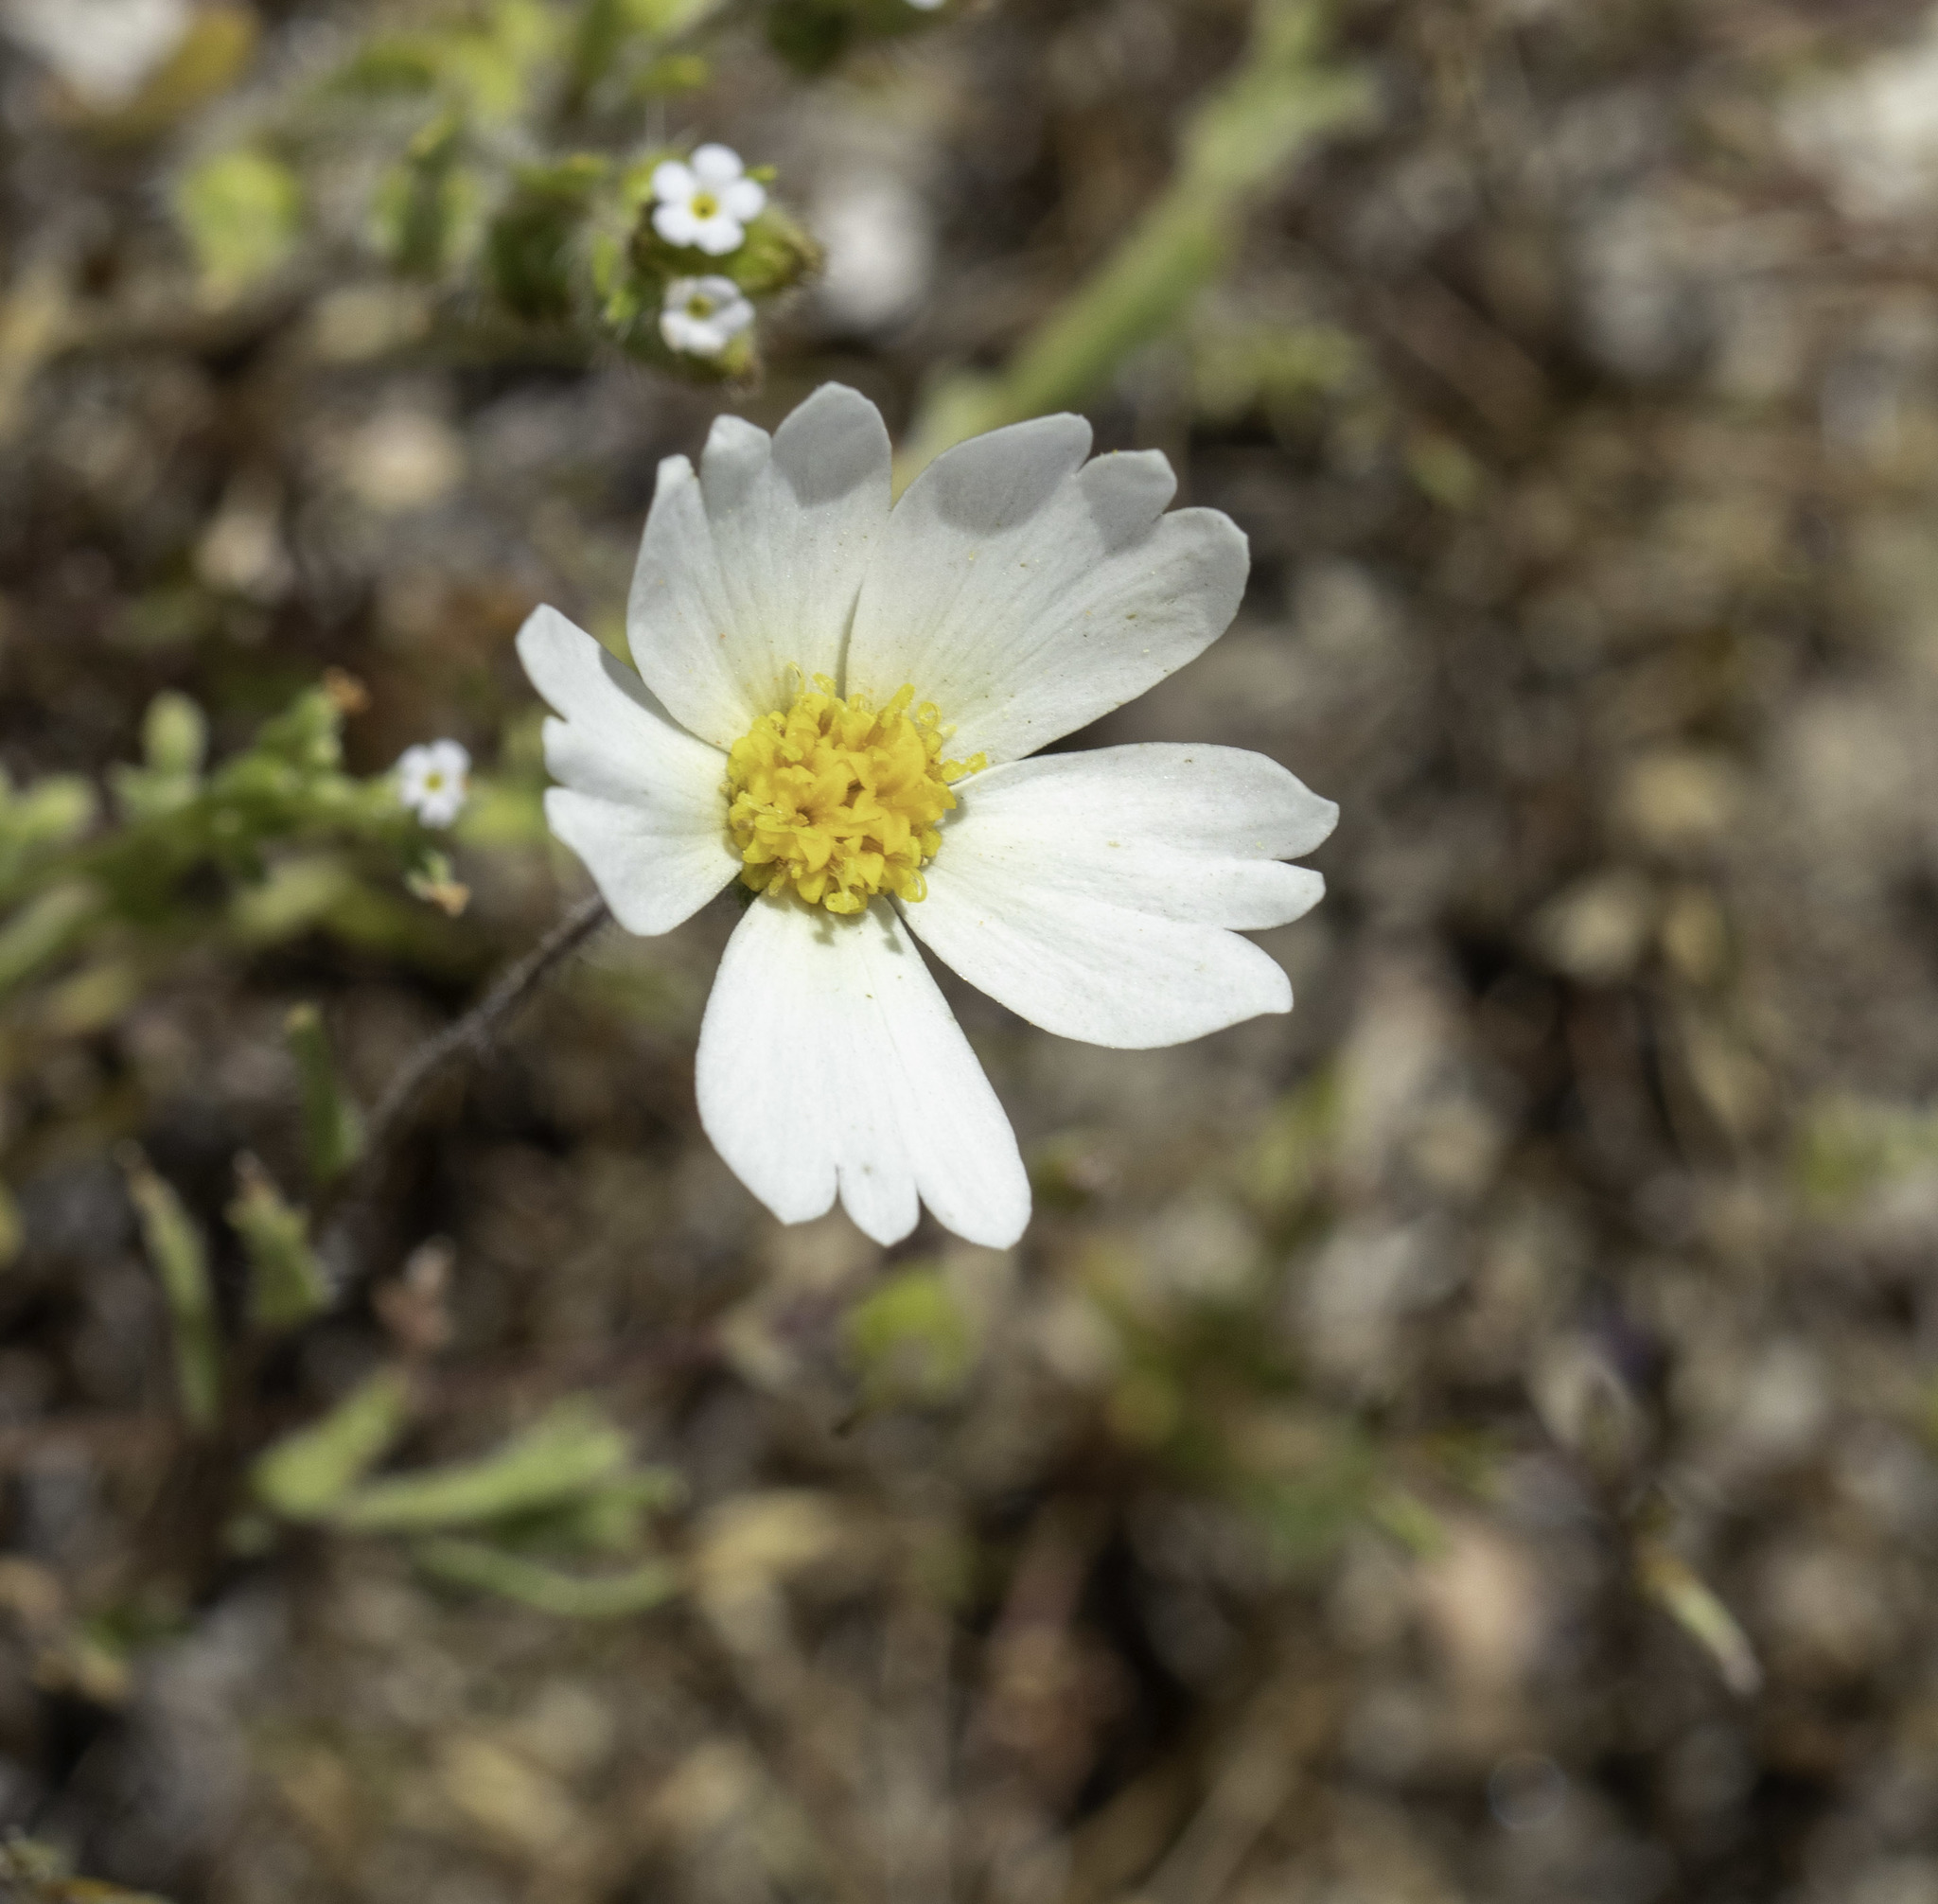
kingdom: Plantae
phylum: Tracheophyta
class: Magnoliopsida
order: Asterales
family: Asteraceae
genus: Layia
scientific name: Layia pentachaeta
